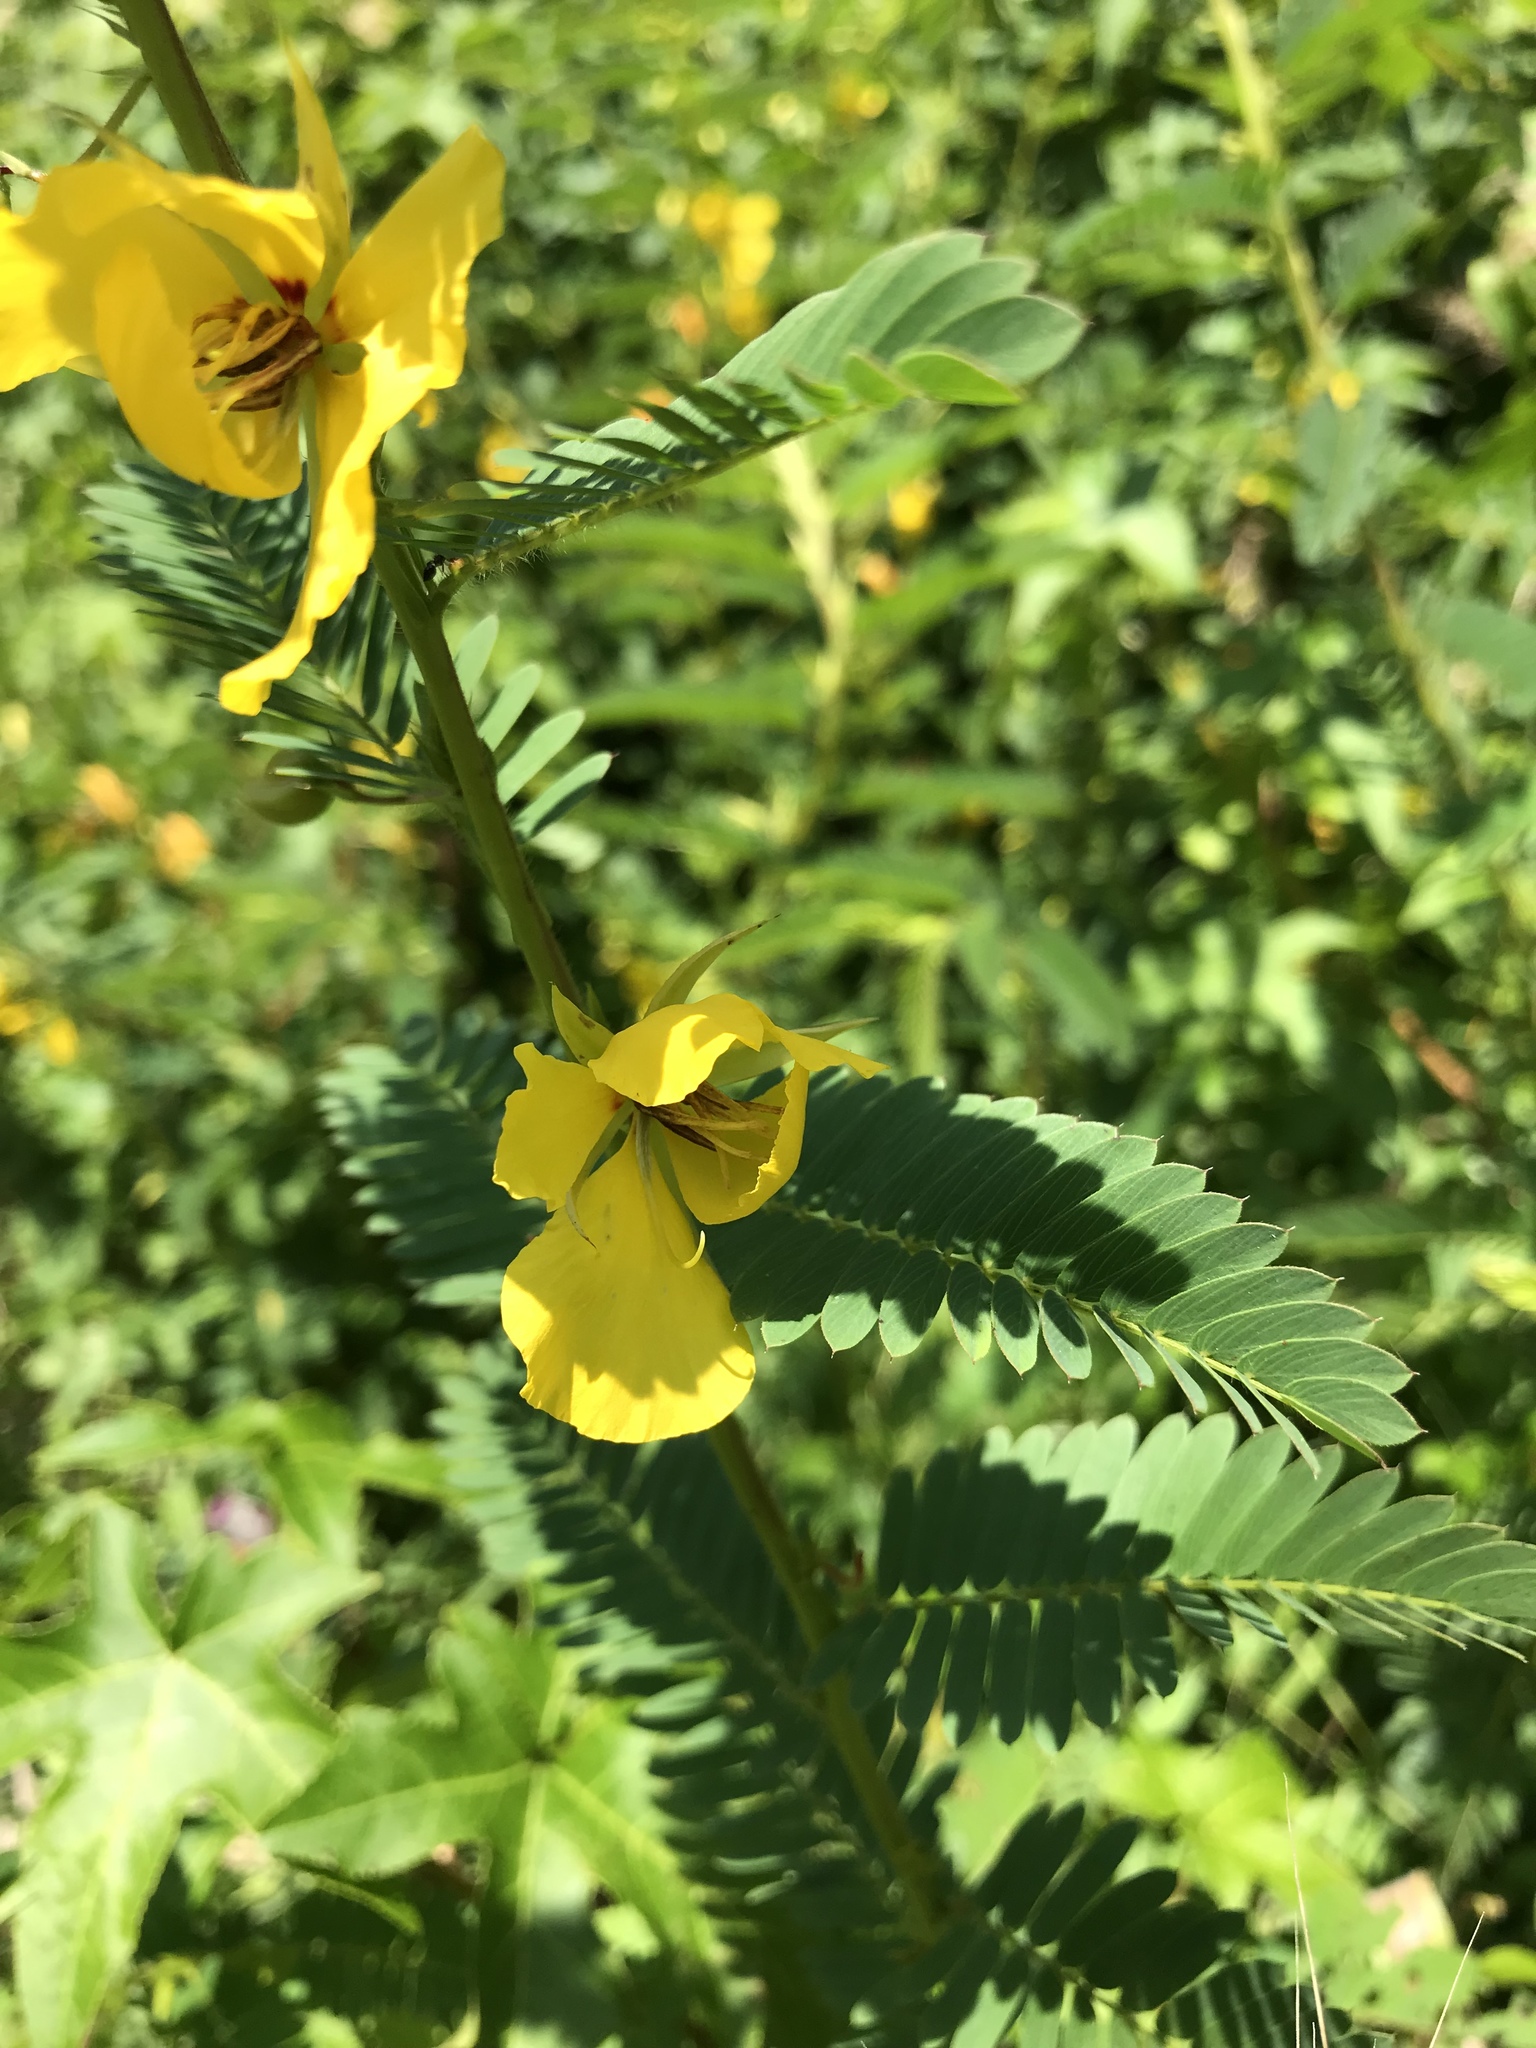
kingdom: Plantae
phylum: Tracheophyta
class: Magnoliopsida
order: Fabales
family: Fabaceae
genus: Chamaecrista
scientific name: Chamaecrista fasciculata
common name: Golden cassia
